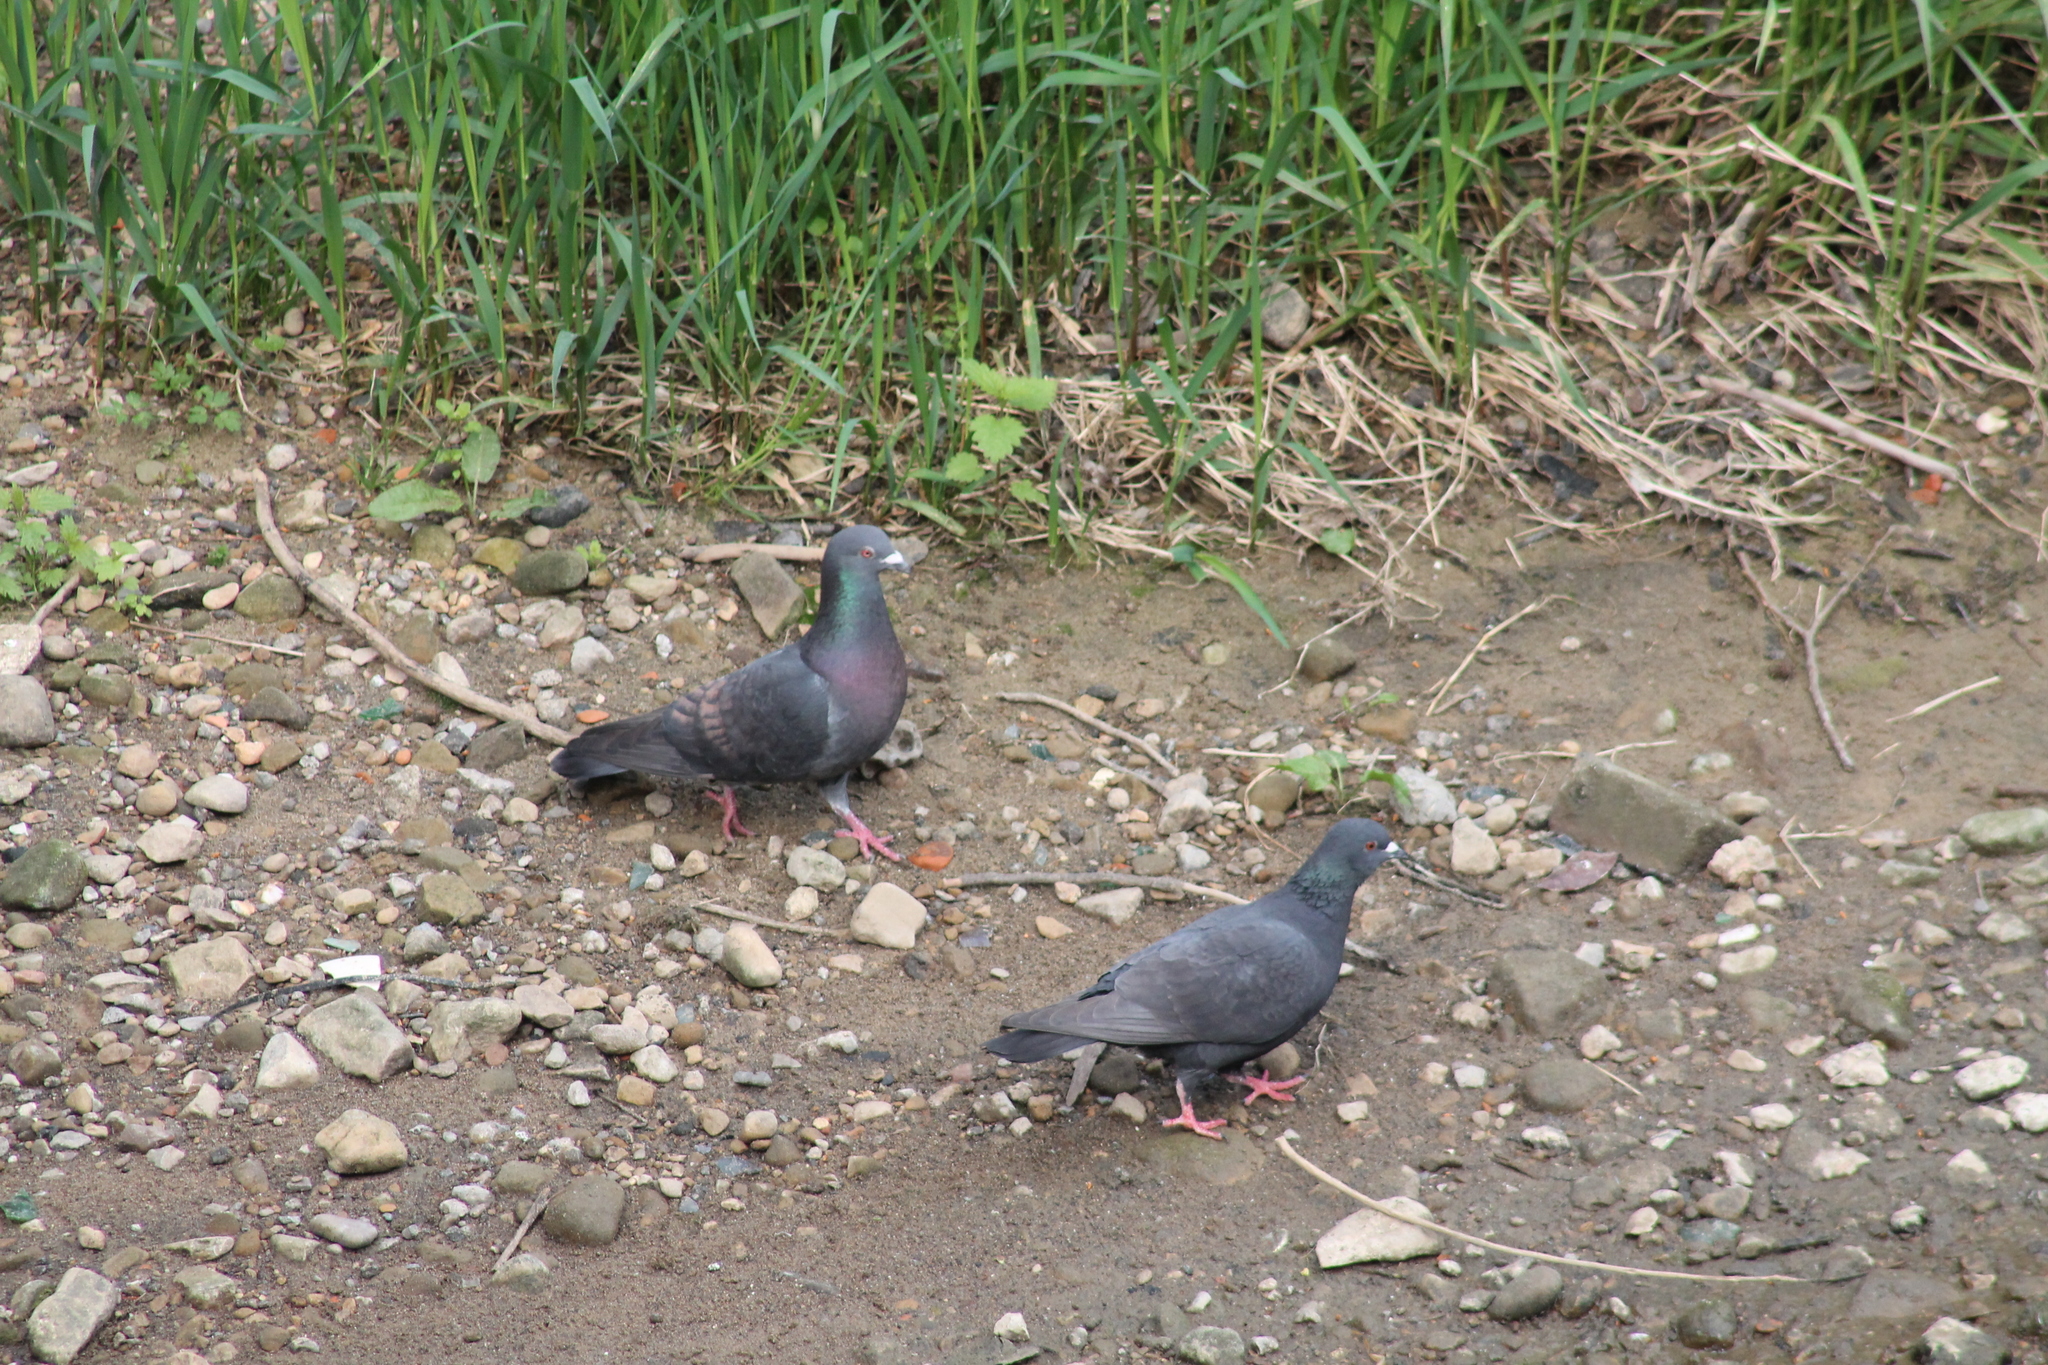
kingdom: Animalia
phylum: Chordata
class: Aves
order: Columbiformes
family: Columbidae
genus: Columba
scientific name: Columba livia
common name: Rock pigeon
